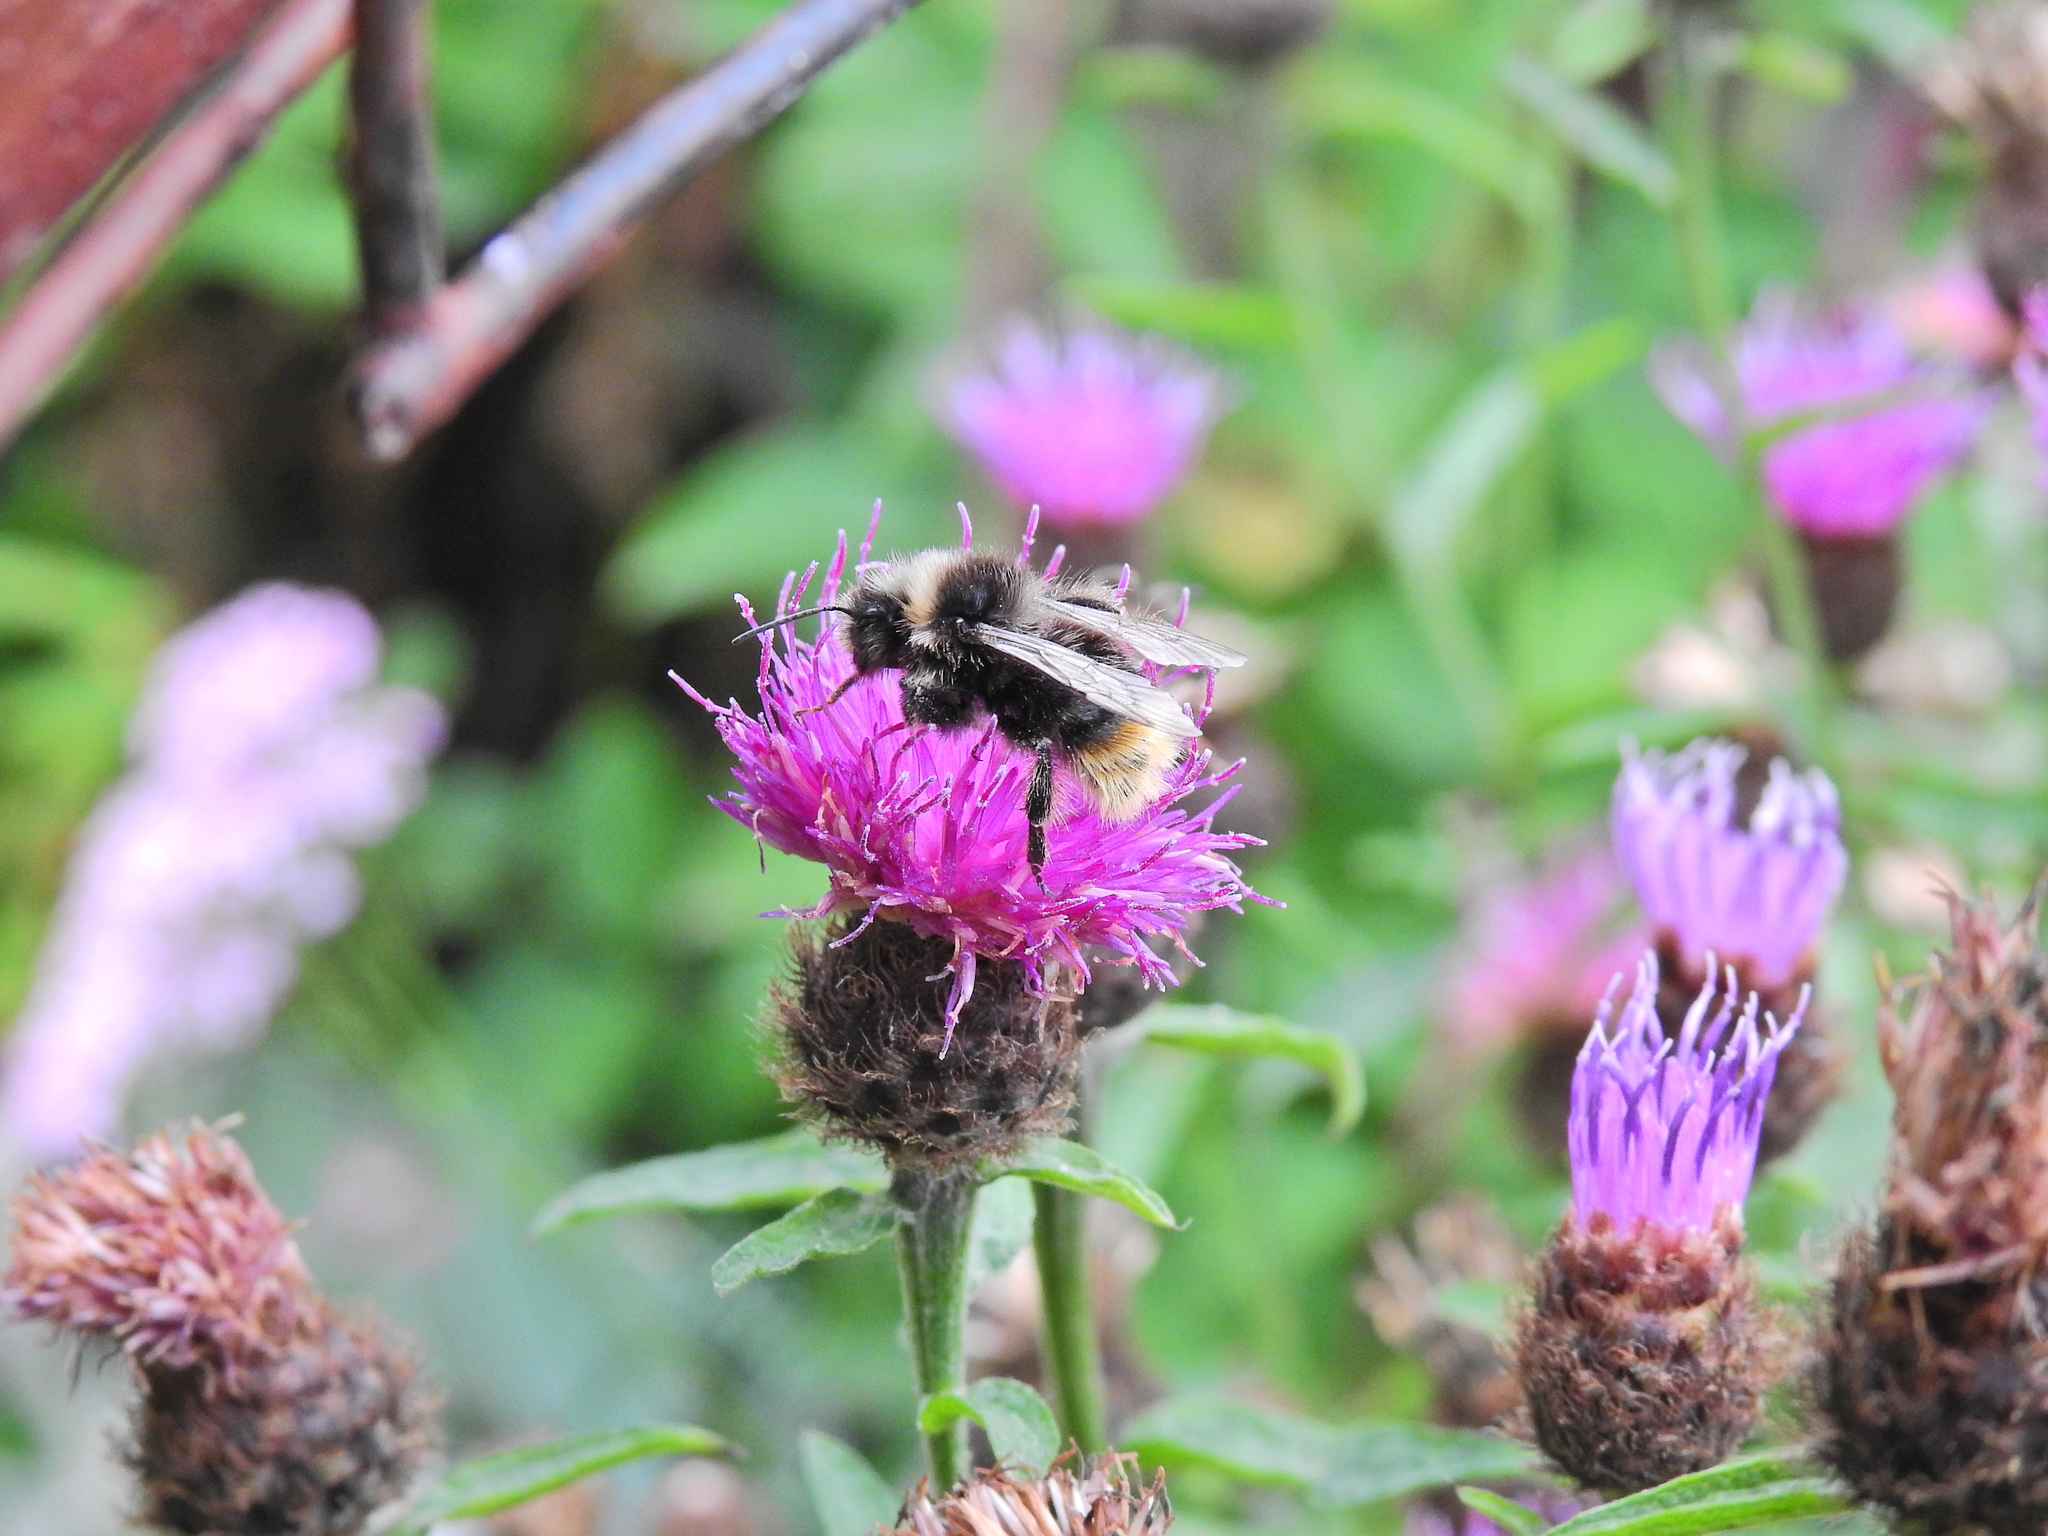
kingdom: Animalia
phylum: Arthropoda
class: Insecta
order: Hymenoptera
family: Apidae
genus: Bombus
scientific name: Bombus lapidarius
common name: Large red-tailed humble-bee
